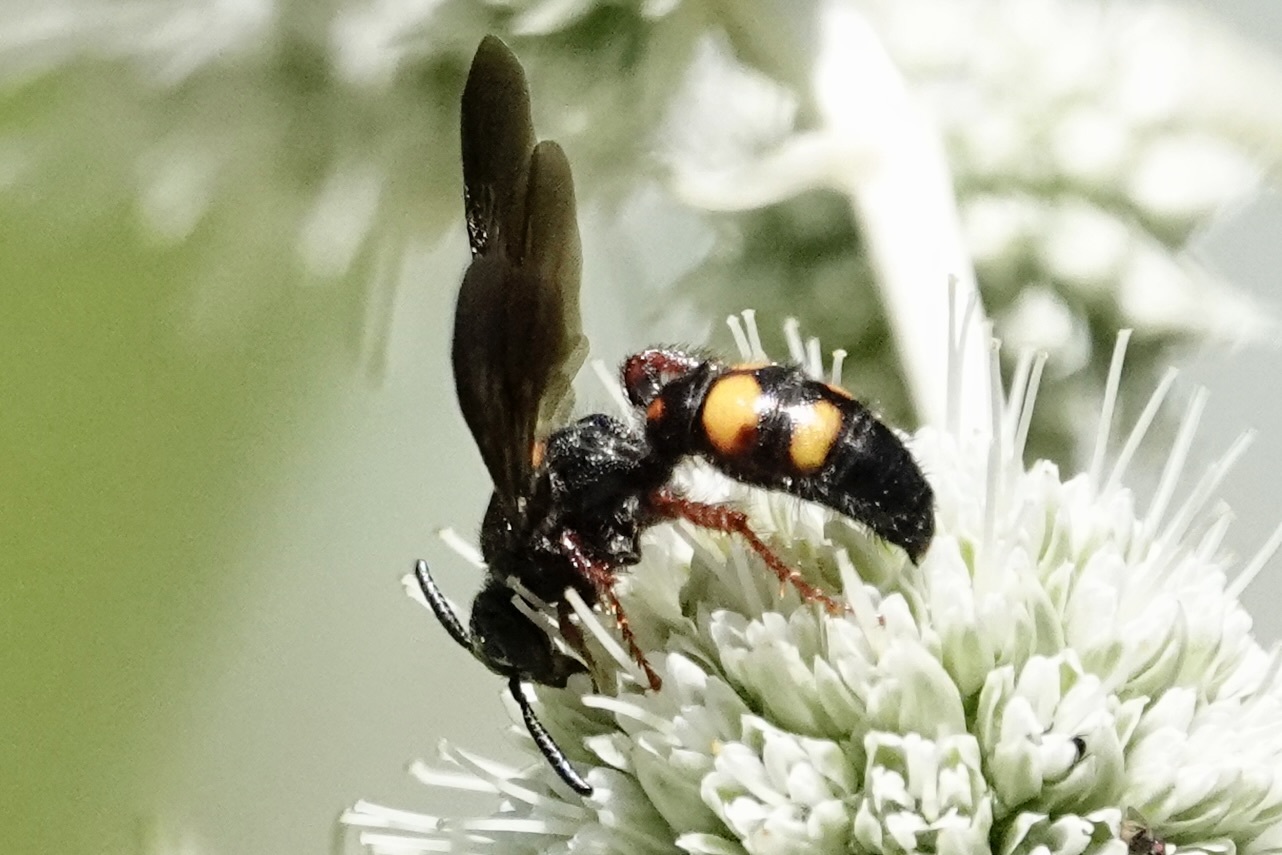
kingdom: Animalia
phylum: Arthropoda
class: Insecta
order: Hymenoptera
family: Scoliidae
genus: Scolia
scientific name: Scolia nobilitata
